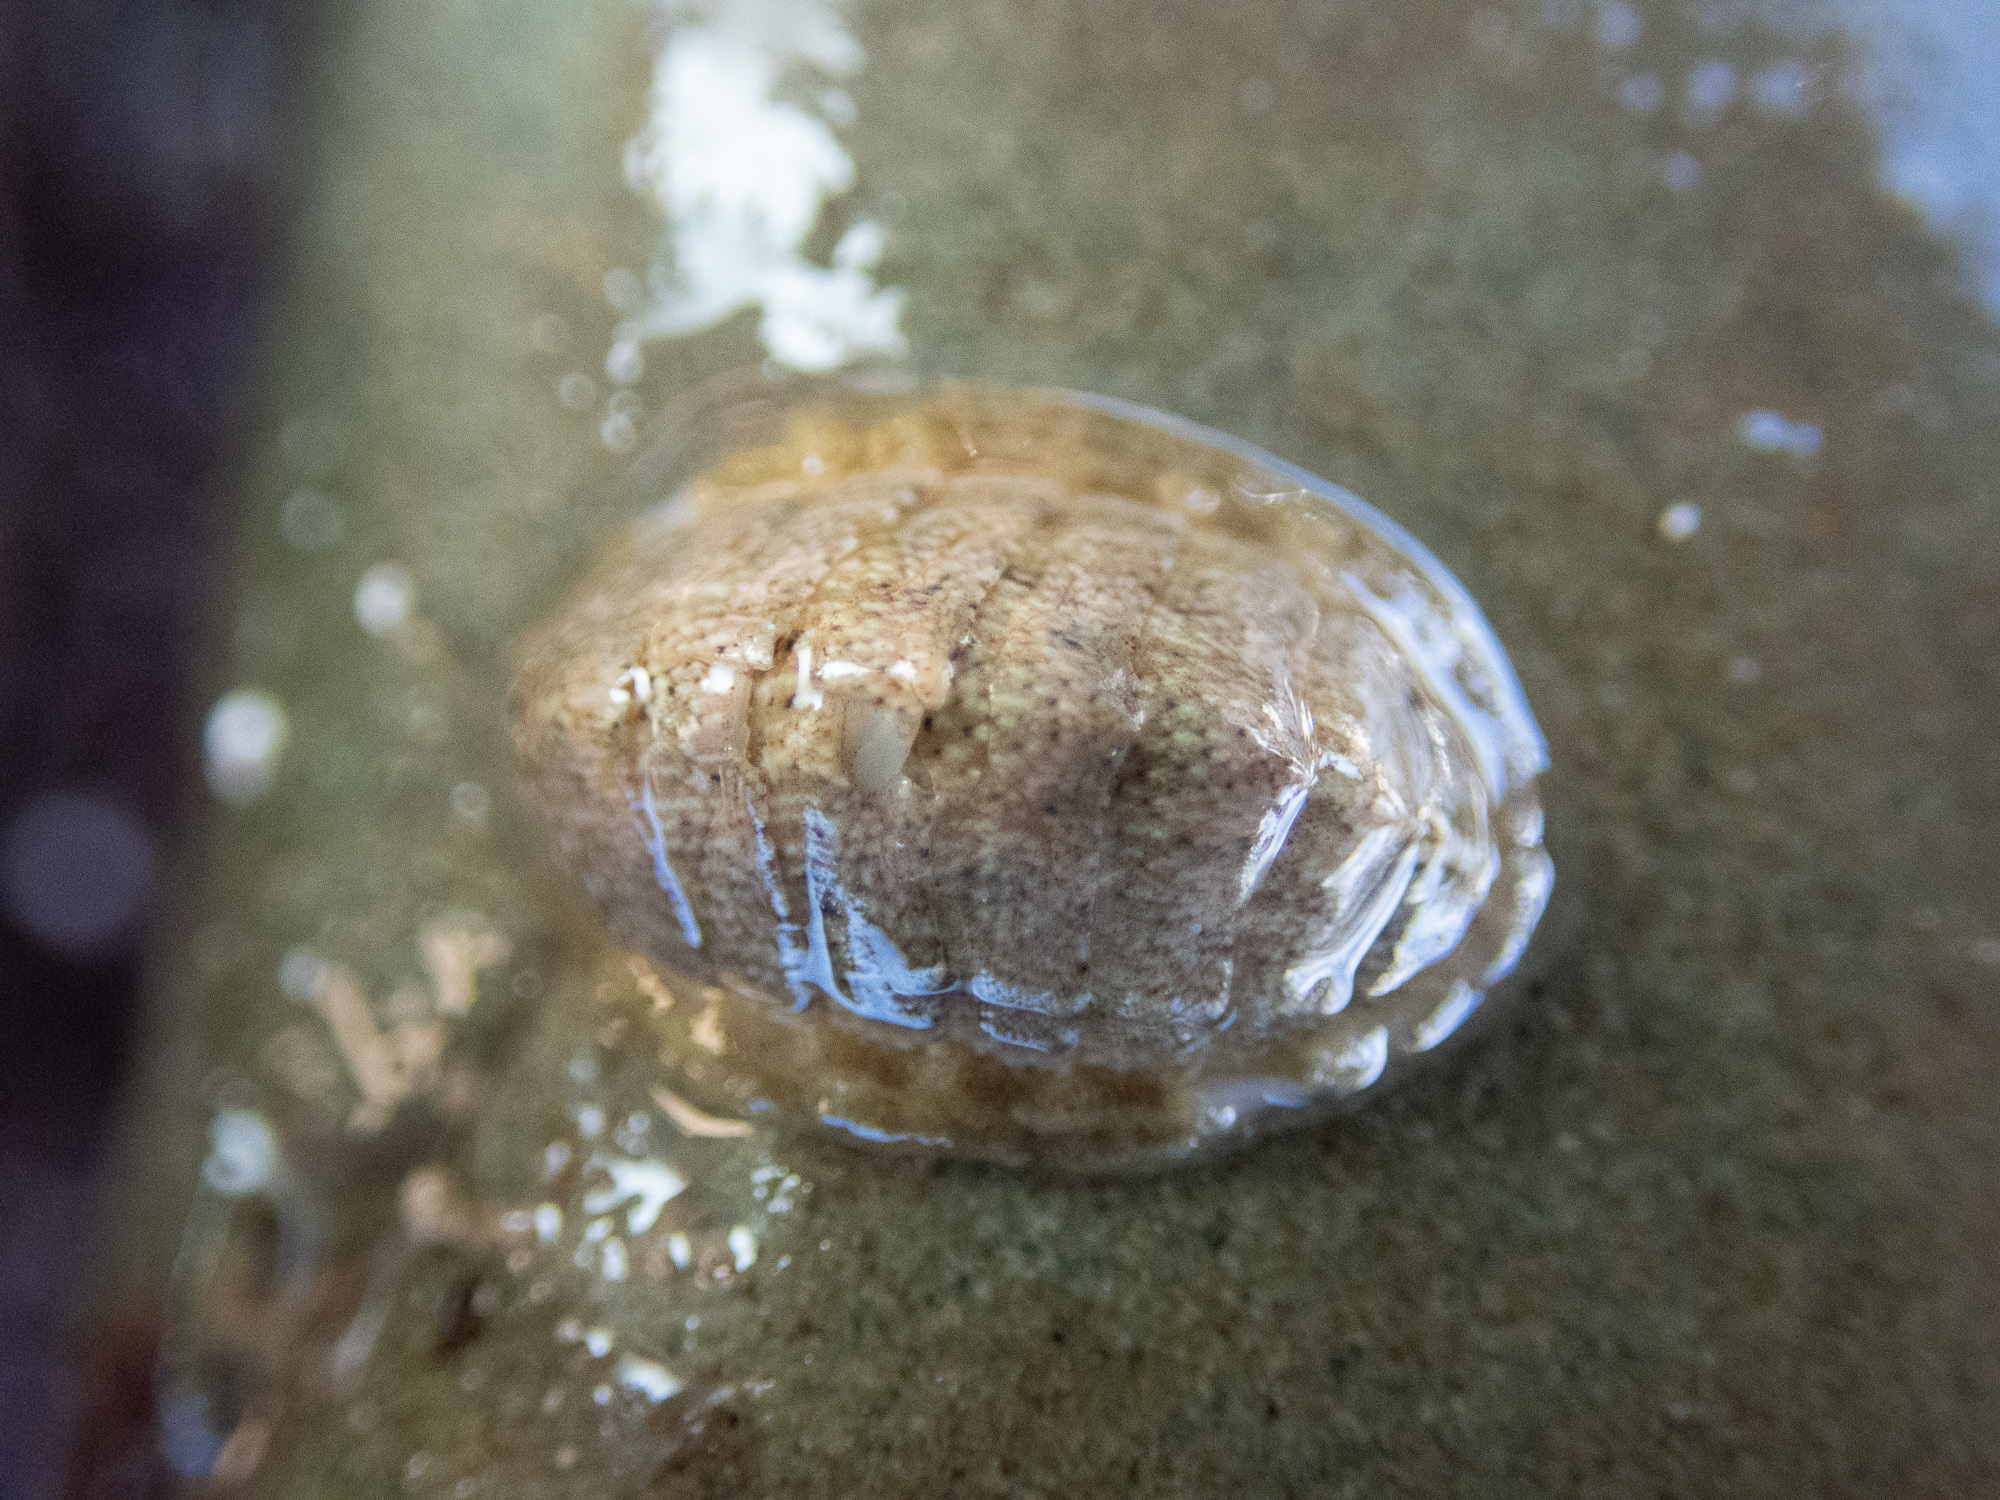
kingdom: Animalia
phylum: Mollusca
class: Polyplacophora
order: Chitonida
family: Tonicellidae
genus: Lepidochitona
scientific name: Lepidochitona cinerea
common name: Cinereous chiton
